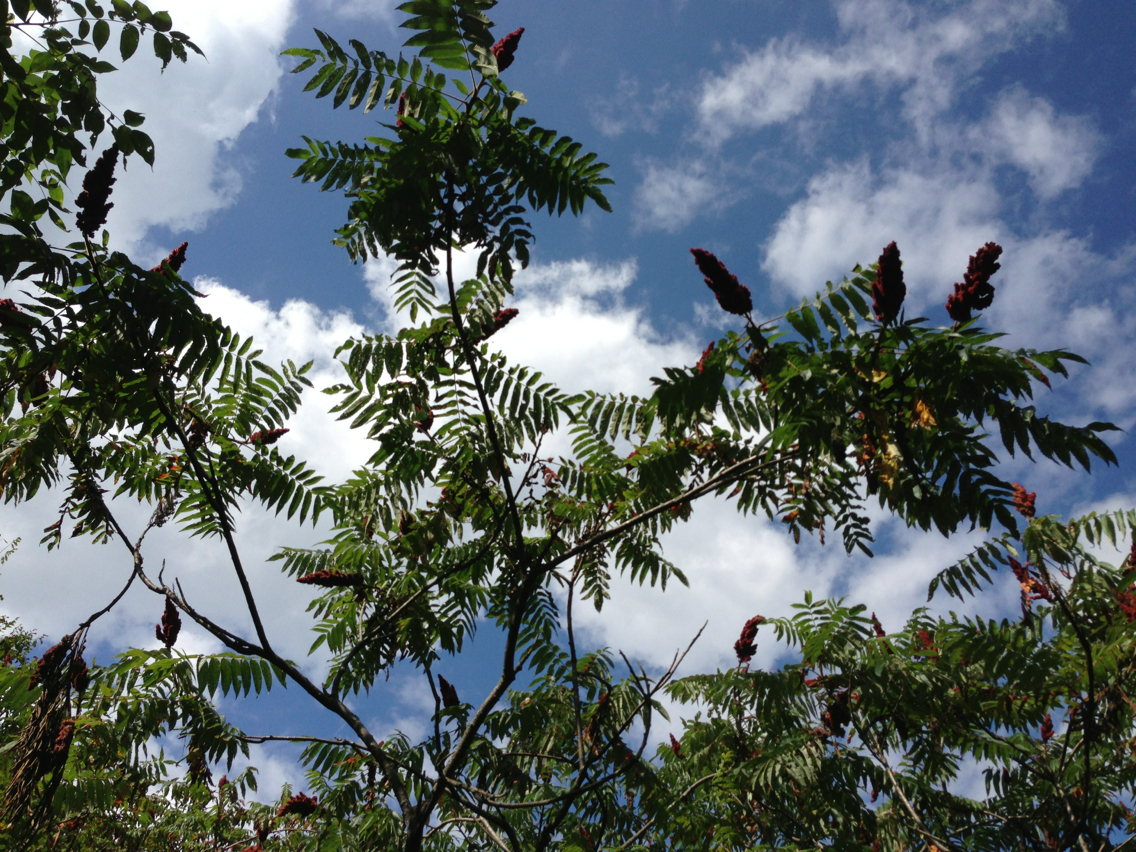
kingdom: Plantae
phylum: Tracheophyta
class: Magnoliopsida
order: Sapindales
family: Anacardiaceae
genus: Rhus
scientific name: Rhus typhina
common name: Staghorn sumac
